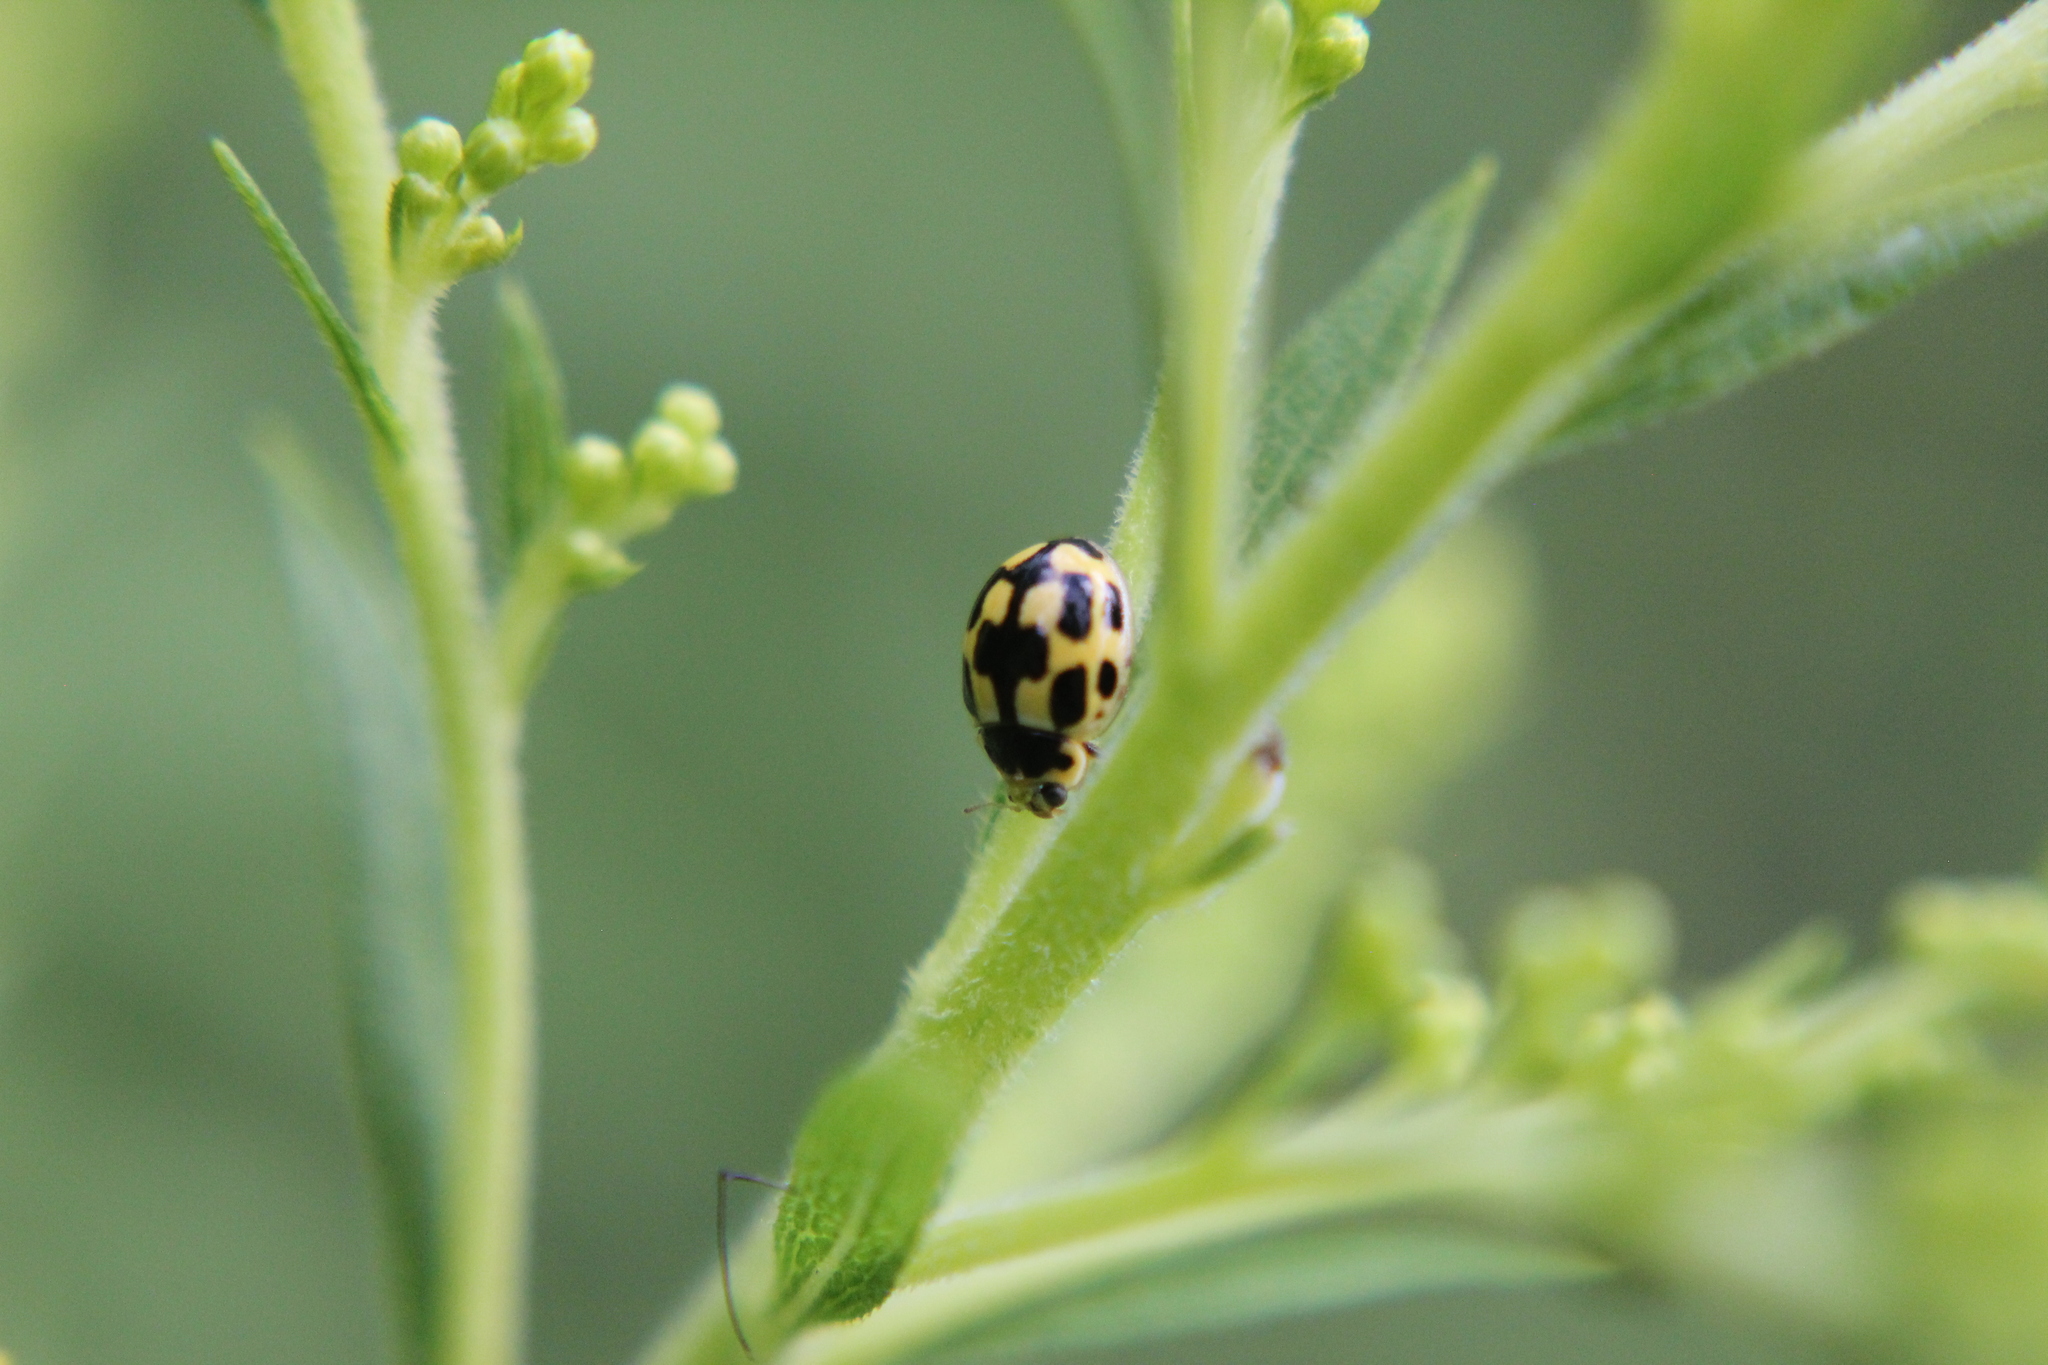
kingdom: Animalia
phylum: Arthropoda
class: Insecta
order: Coleoptera
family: Coccinellidae
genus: Propylaea
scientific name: Propylaea quatuordecimpunctata
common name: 14-spotted ladybird beetle
